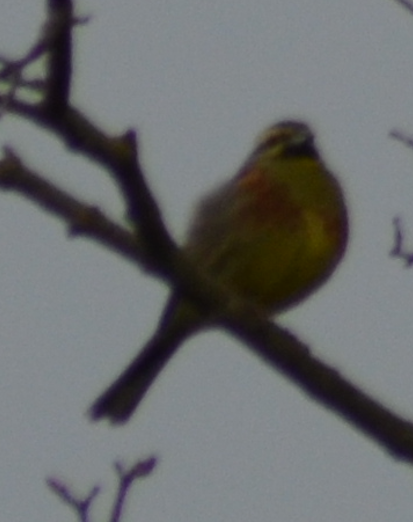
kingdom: Animalia
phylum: Chordata
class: Aves
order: Passeriformes
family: Emberizidae
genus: Emberiza
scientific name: Emberiza cirlus
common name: Cirl bunting
